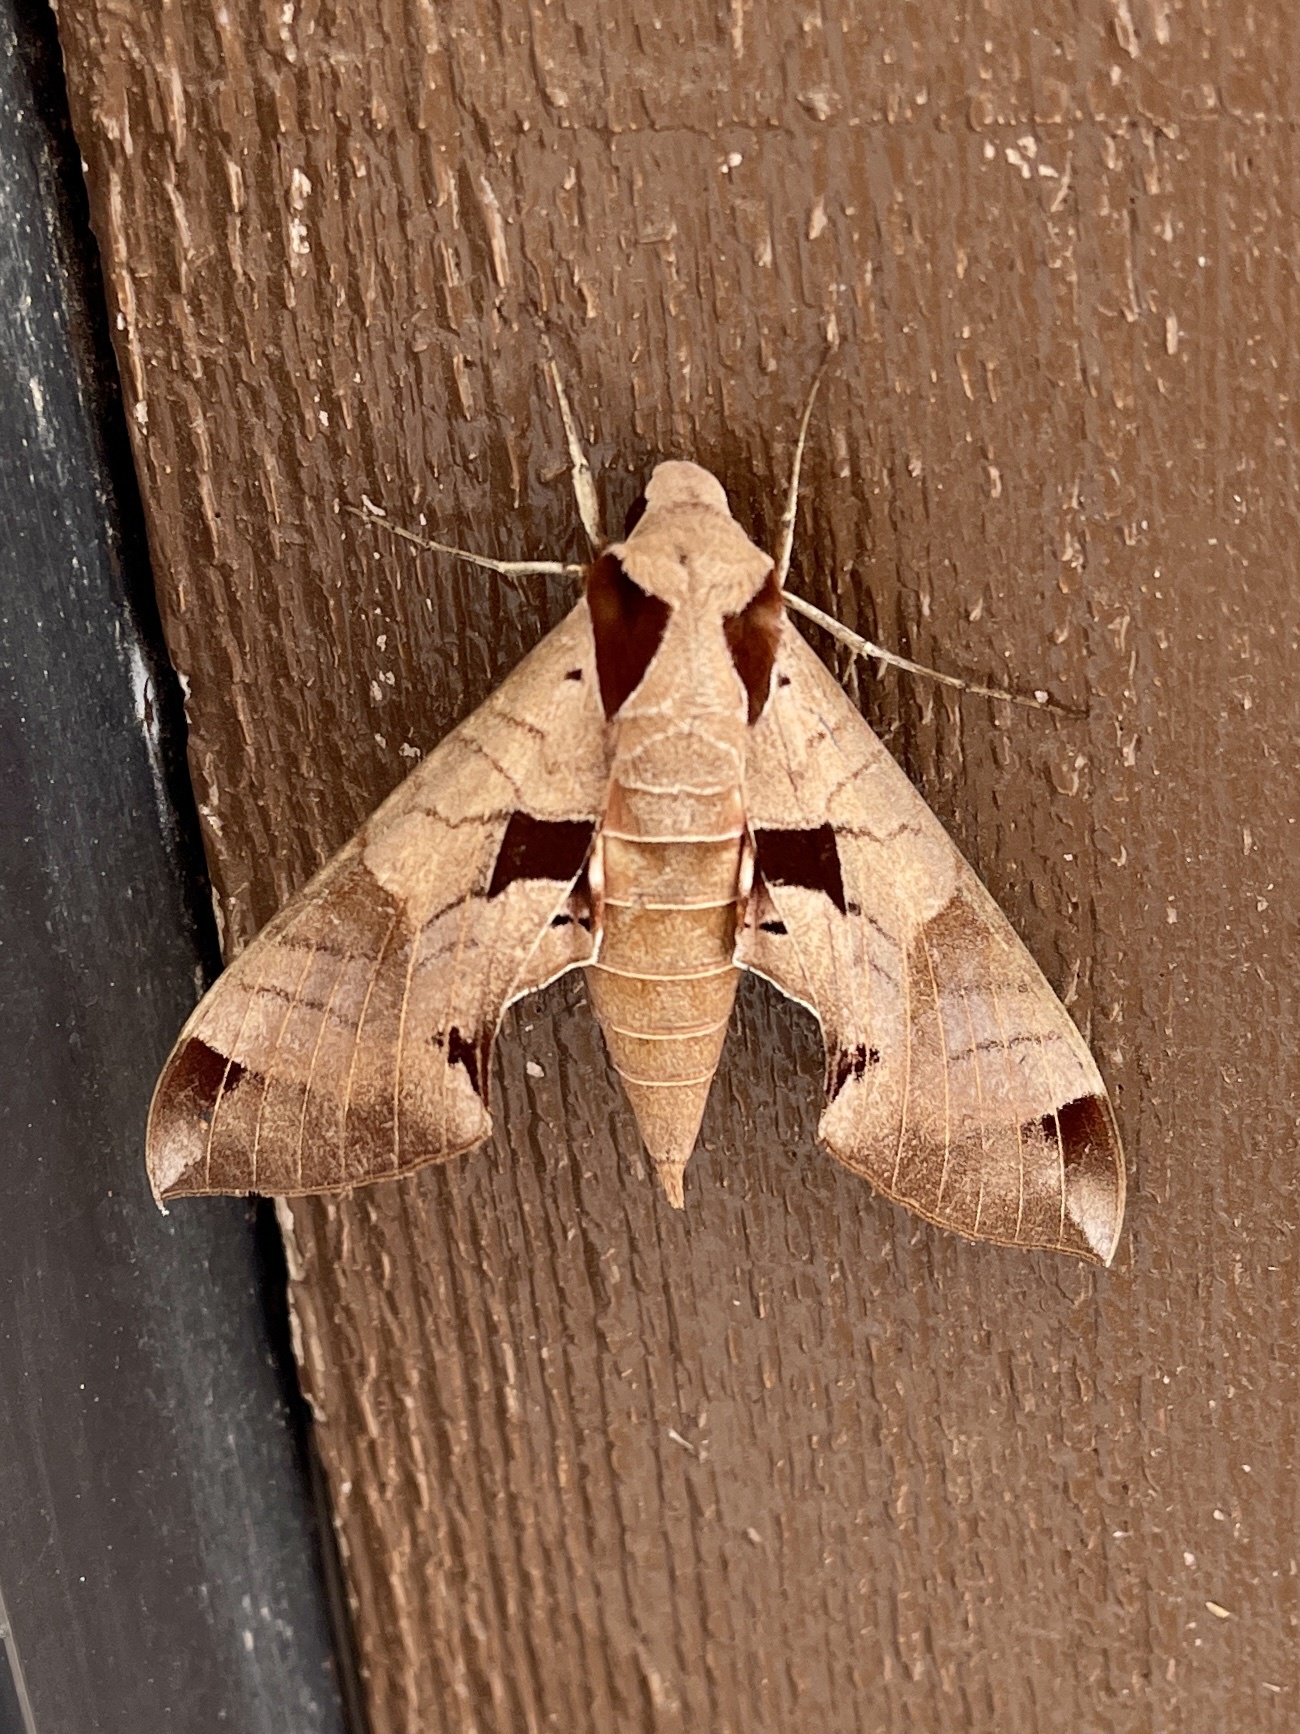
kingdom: Animalia
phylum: Arthropoda
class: Insecta
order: Lepidoptera
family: Sphingidae
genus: Eumorpha
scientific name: Eumorpha achemon
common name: Achemon sphinx
